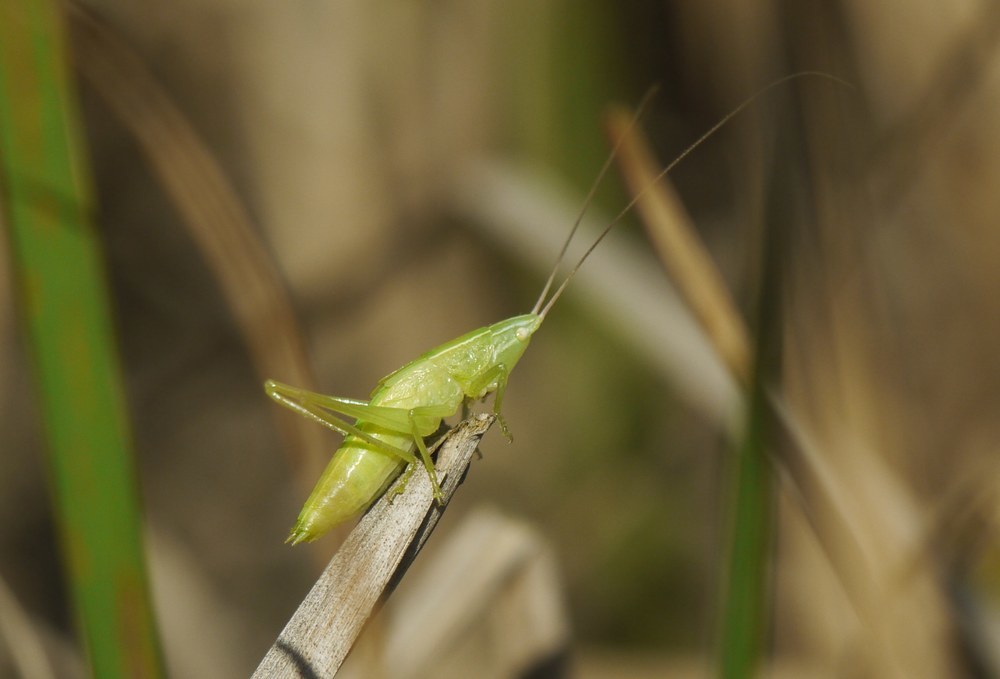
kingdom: Animalia
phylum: Arthropoda
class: Insecta
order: Orthoptera
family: Tettigoniidae
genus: Ruspolia
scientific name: Ruspolia nitidula
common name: Large conehead
